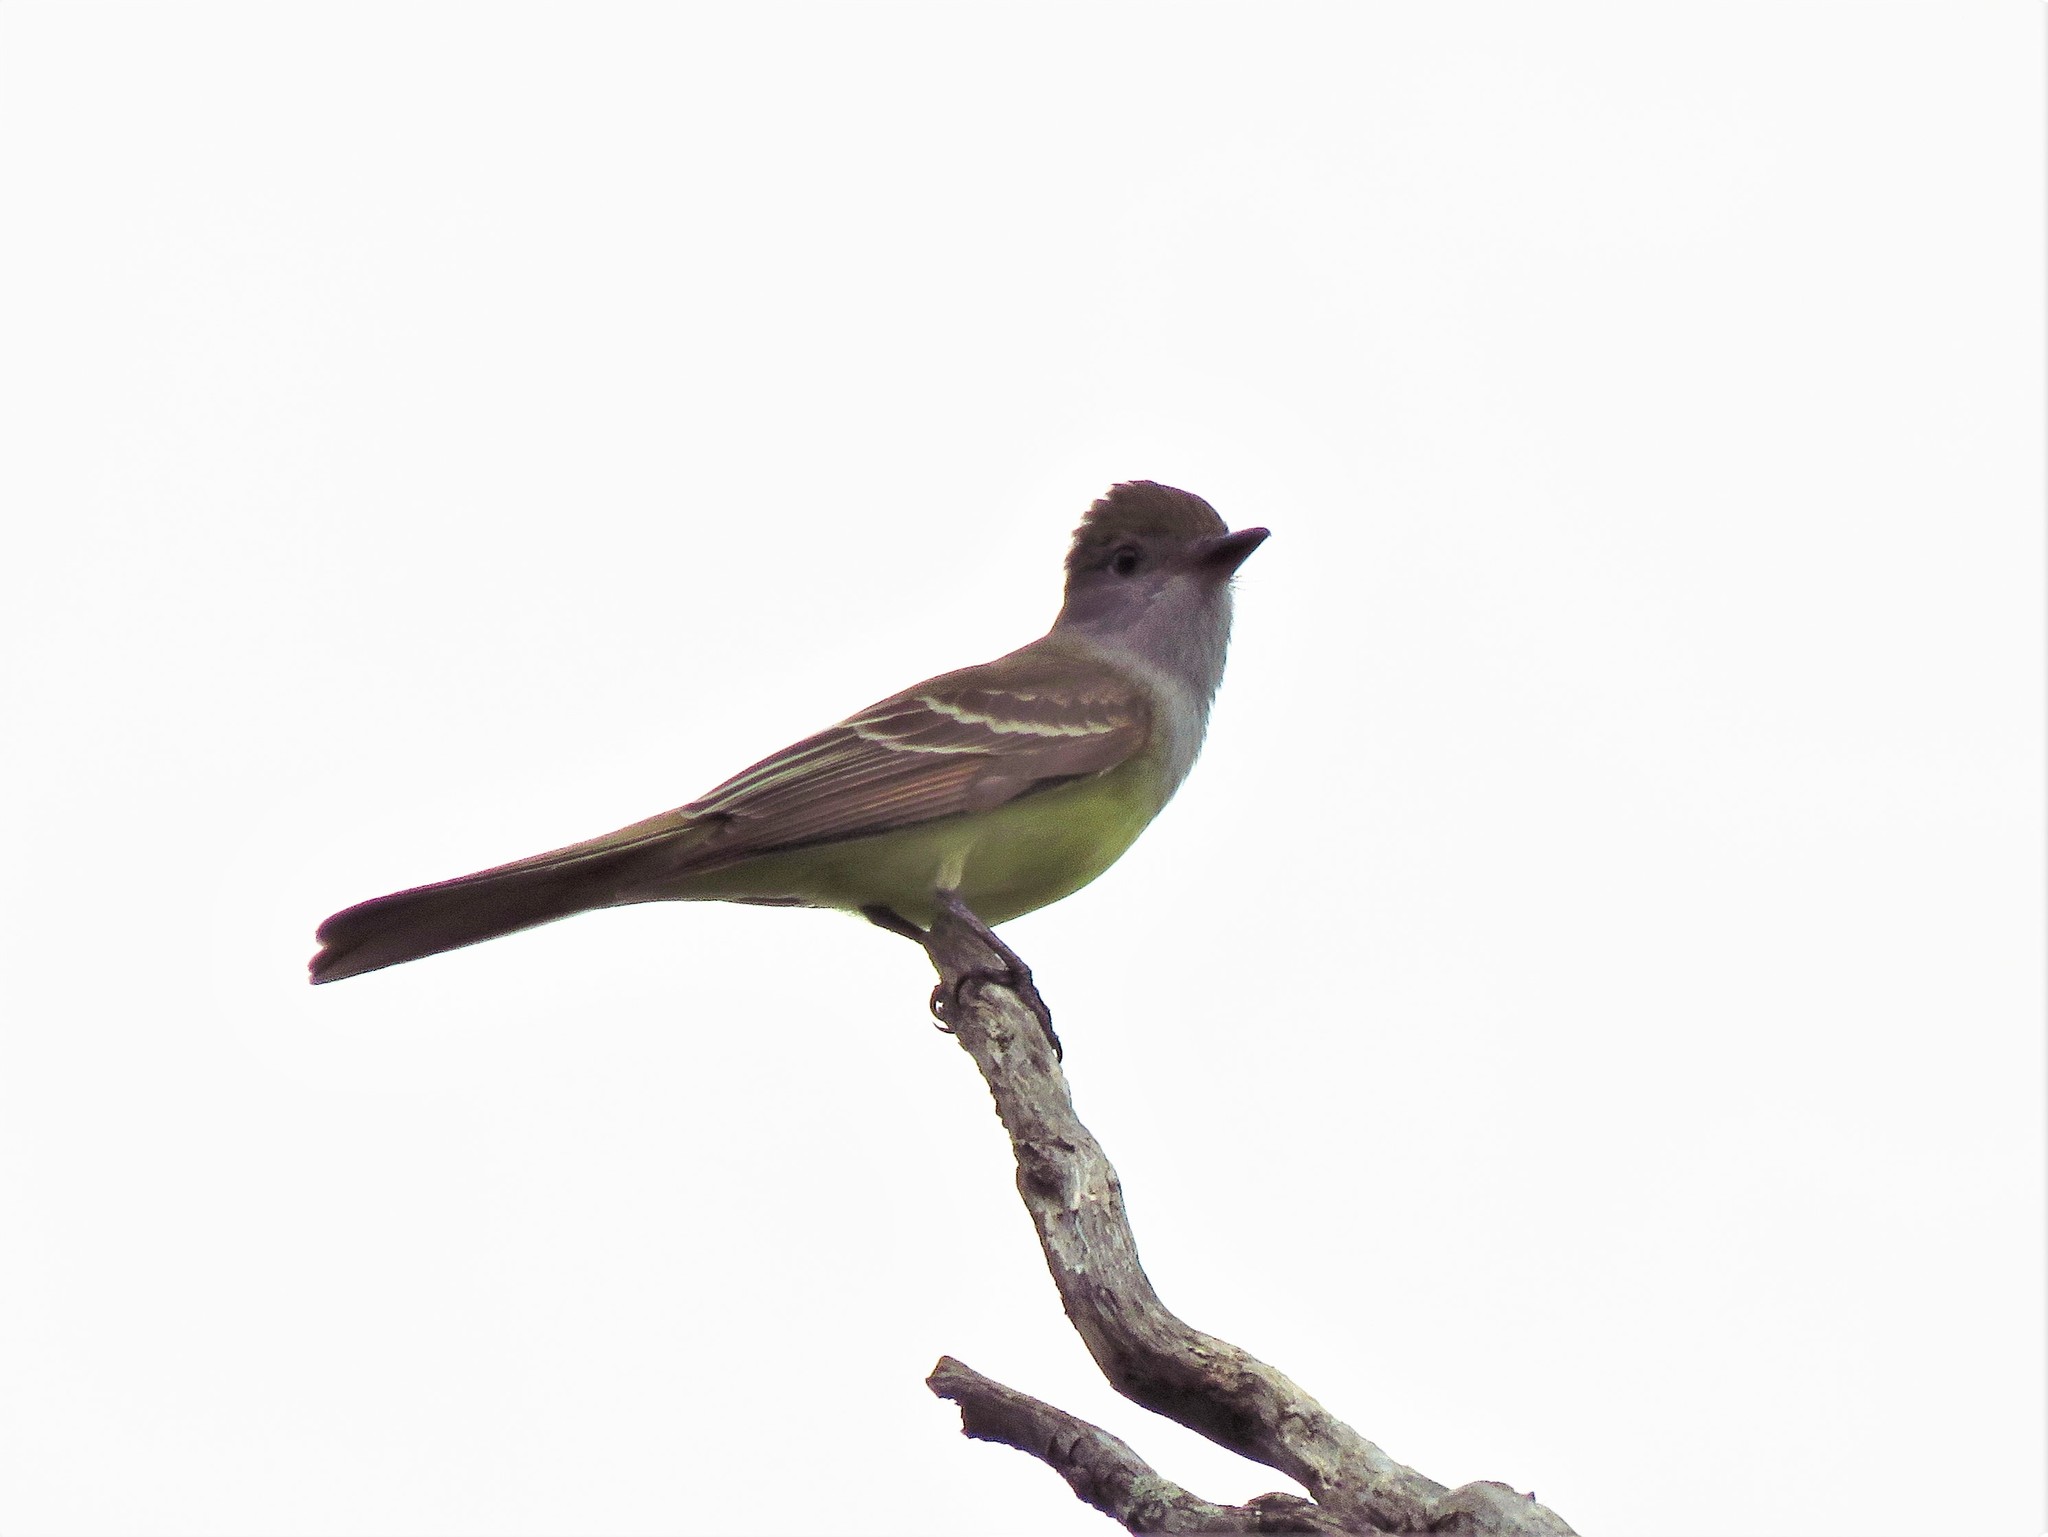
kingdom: Animalia
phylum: Chordata
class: Aves
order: Passeriformes
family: Tyrannidae
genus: Myiarchus
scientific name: Myiarchus crinitus
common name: Great crested flycatcher
